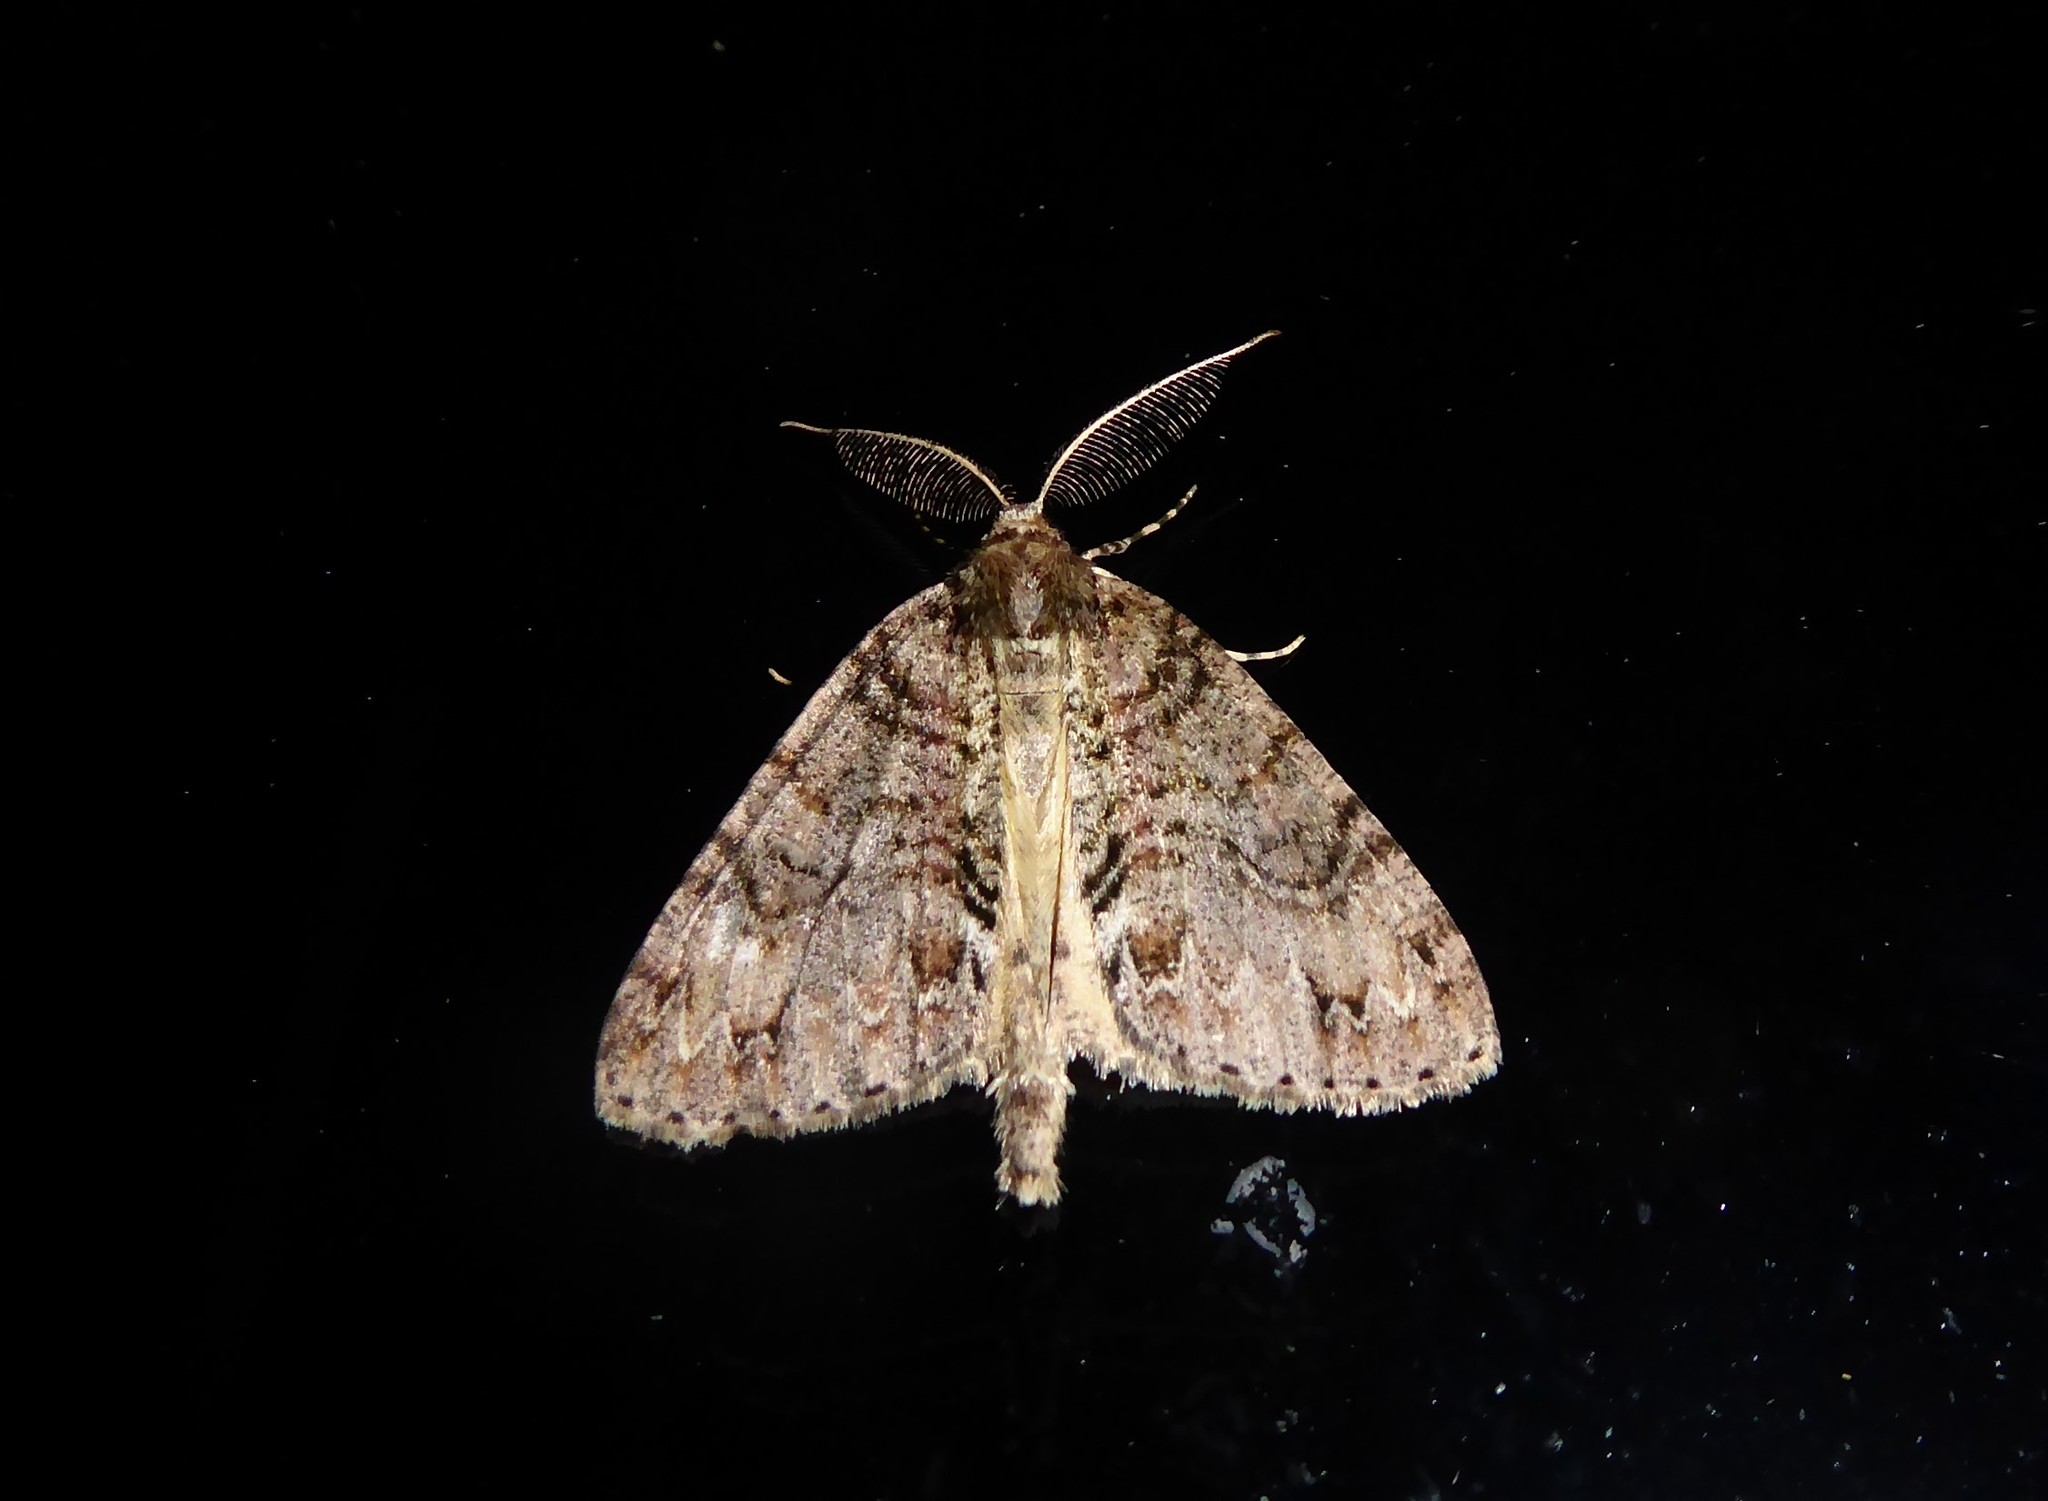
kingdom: Animalia
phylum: Arthropoda
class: Insecta
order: Lepidoptera
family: Geometridae
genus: Pseudocoremia
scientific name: Pseudocoremia suavis
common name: Common forest looper
